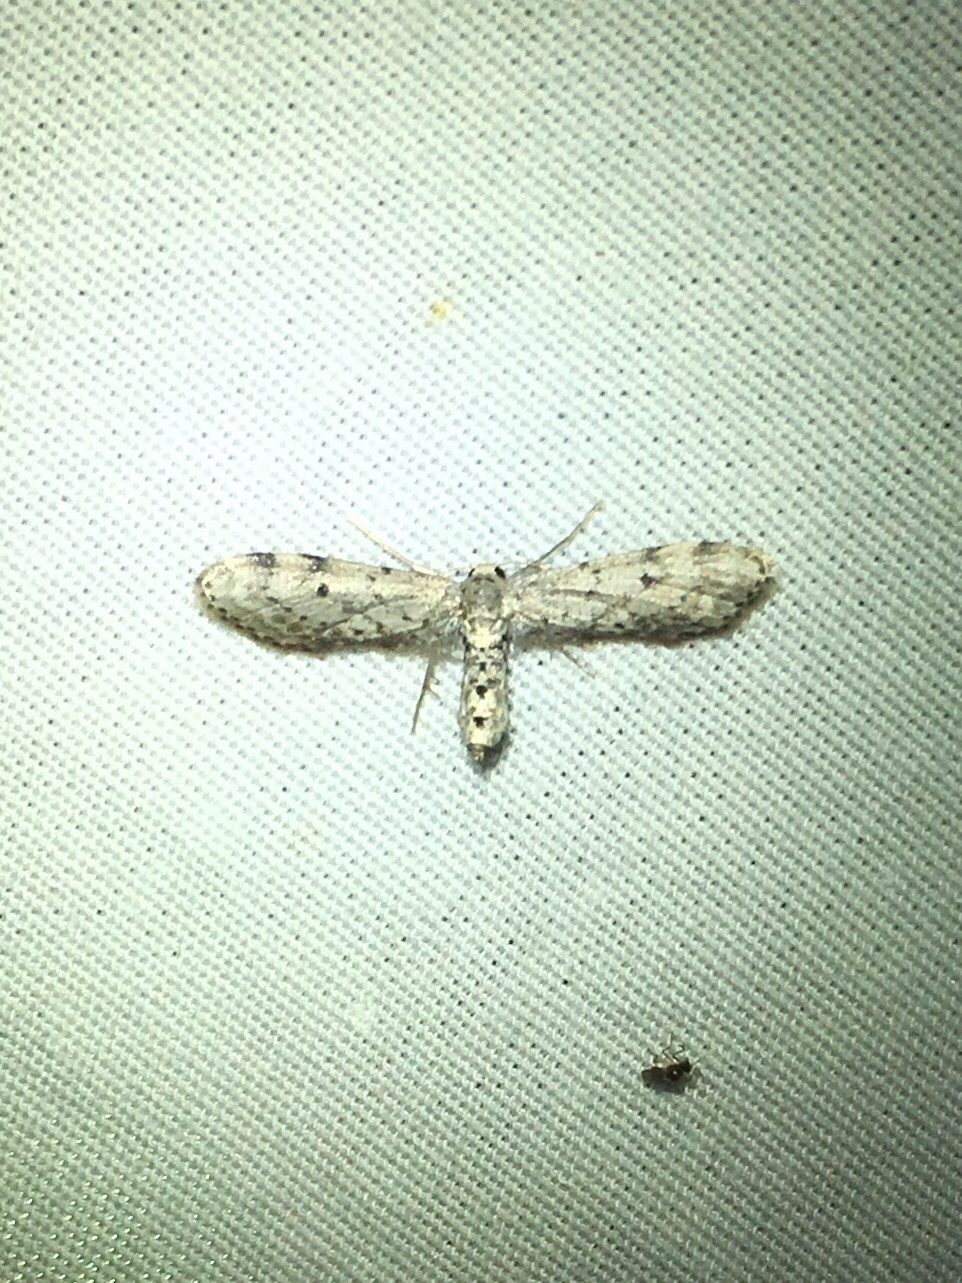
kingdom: Animalia
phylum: Arthropoda
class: Insecta
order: Lepidoptera
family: Geometridae
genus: Eumacrodes
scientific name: Eumacrodes yponomeutaria
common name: Slender geometrid moth
